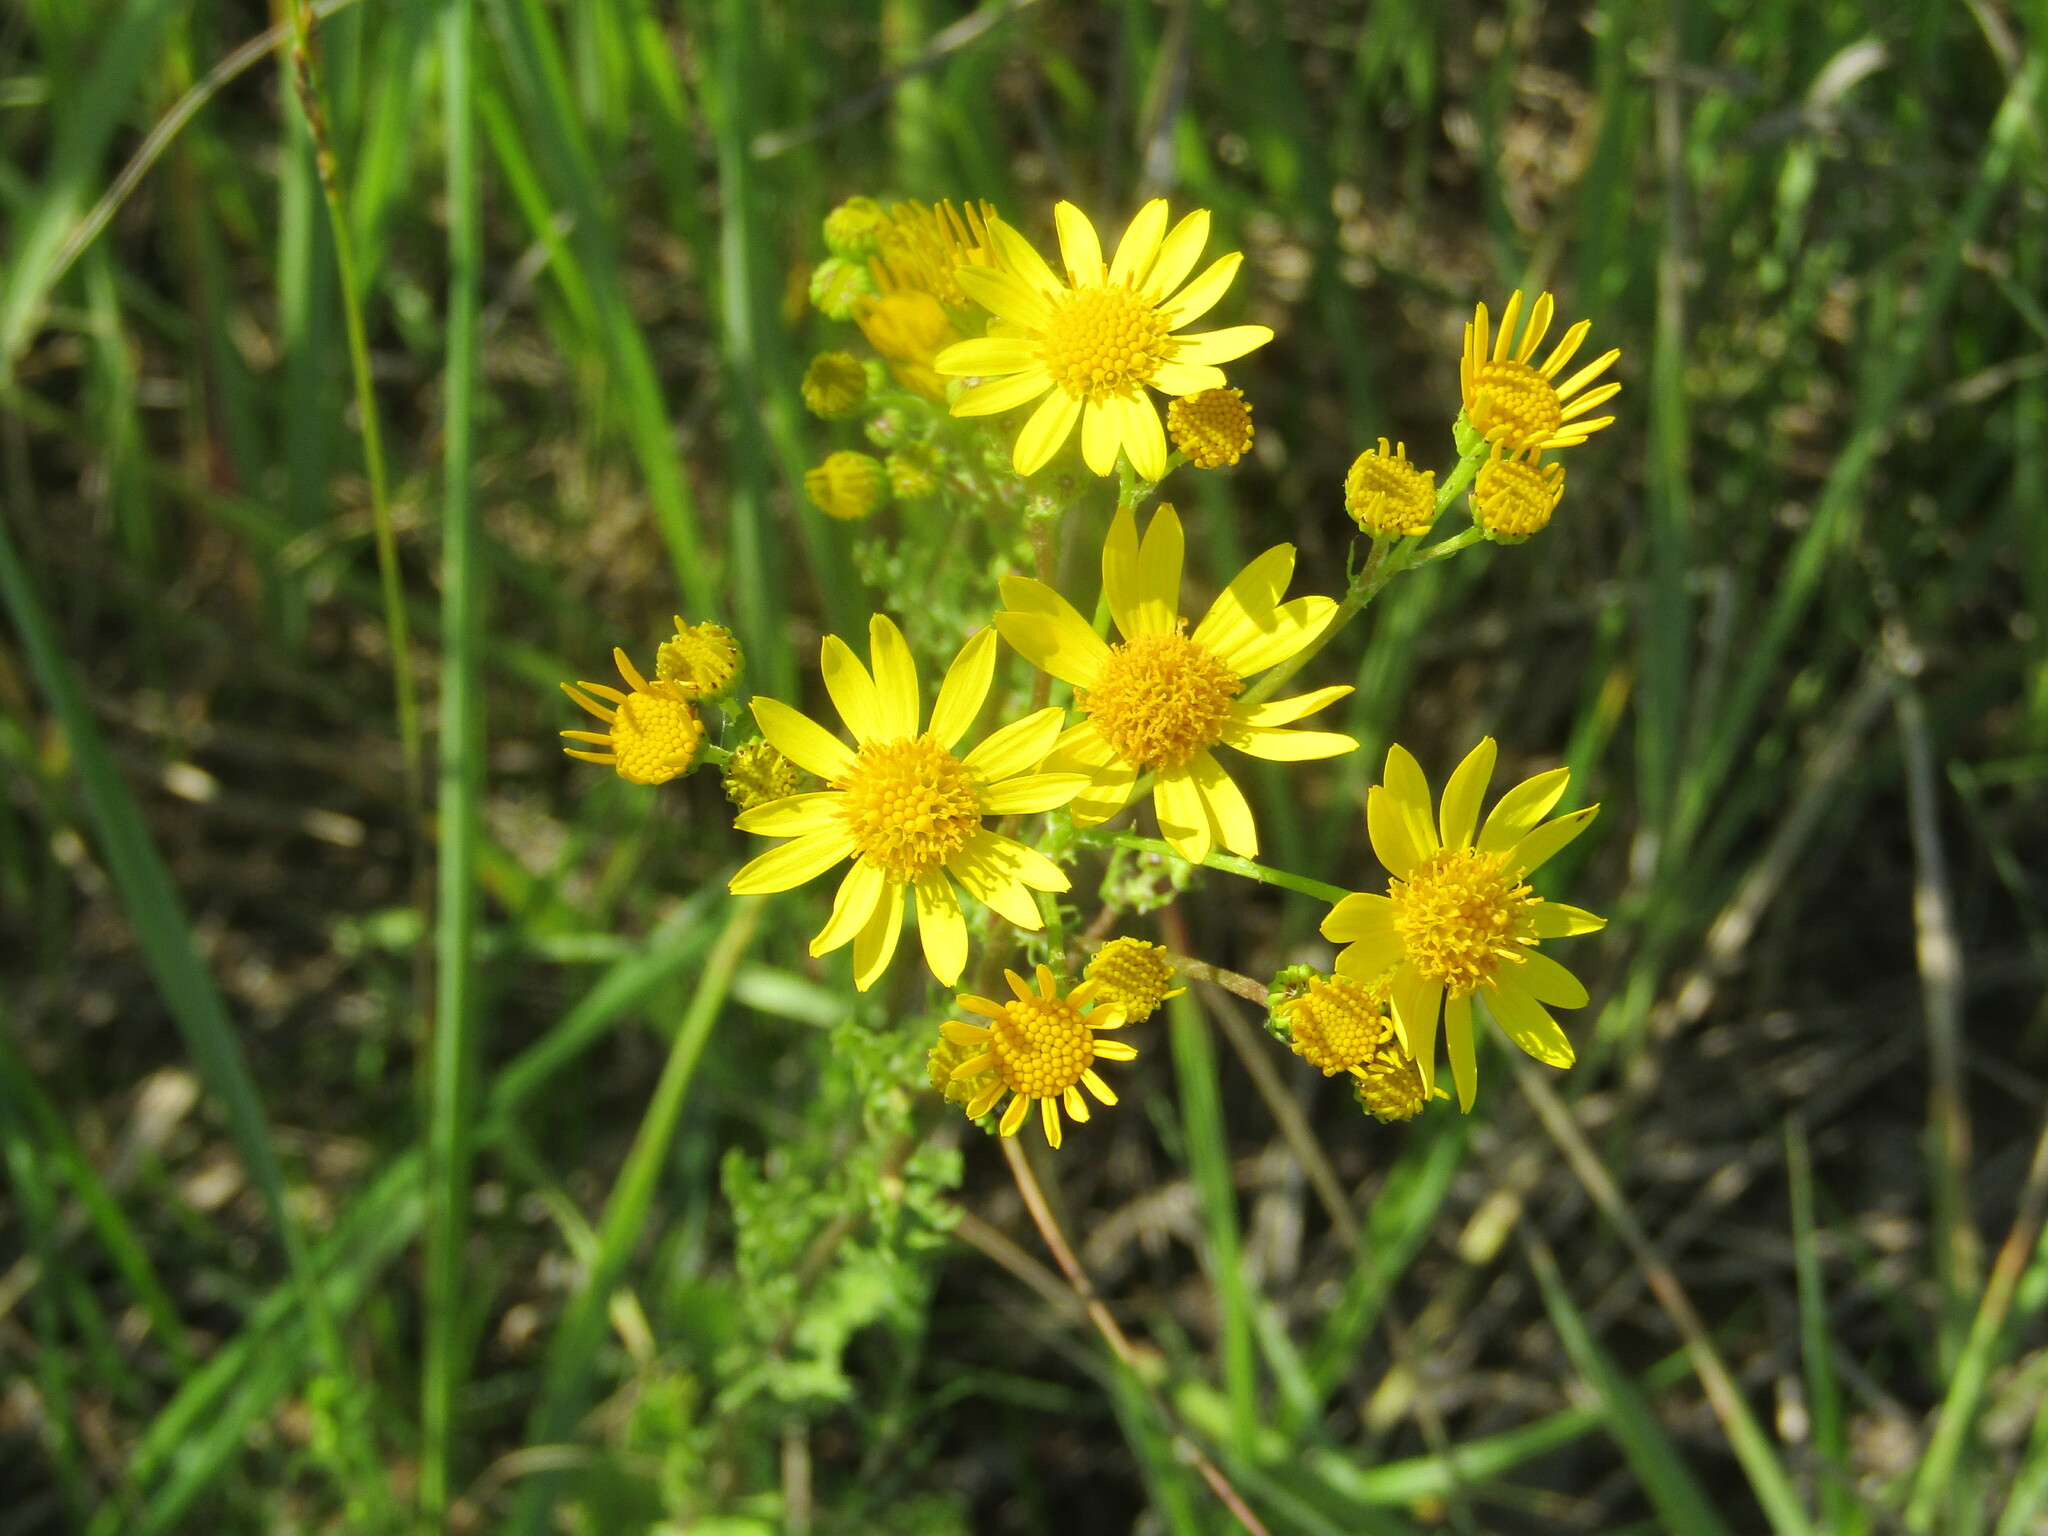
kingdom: Plantae
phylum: Tracheophyta
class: Magnoliopsida
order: Asterales
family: Asteraceae
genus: Jacobaea
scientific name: Jacobaea vulgaris
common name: Stinking willie
